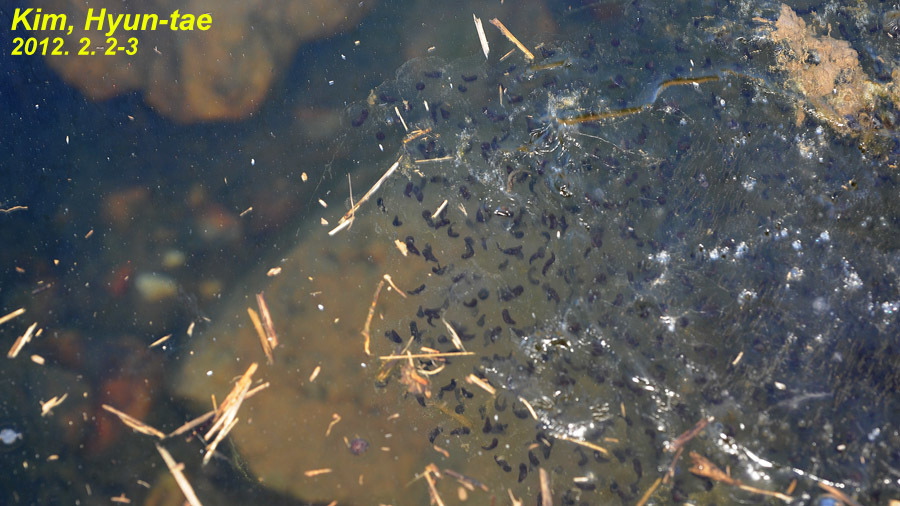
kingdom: Animalia
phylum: Chordata
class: Amphibia
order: Anura
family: Ranidae
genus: Rana
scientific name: Rana uenoi
